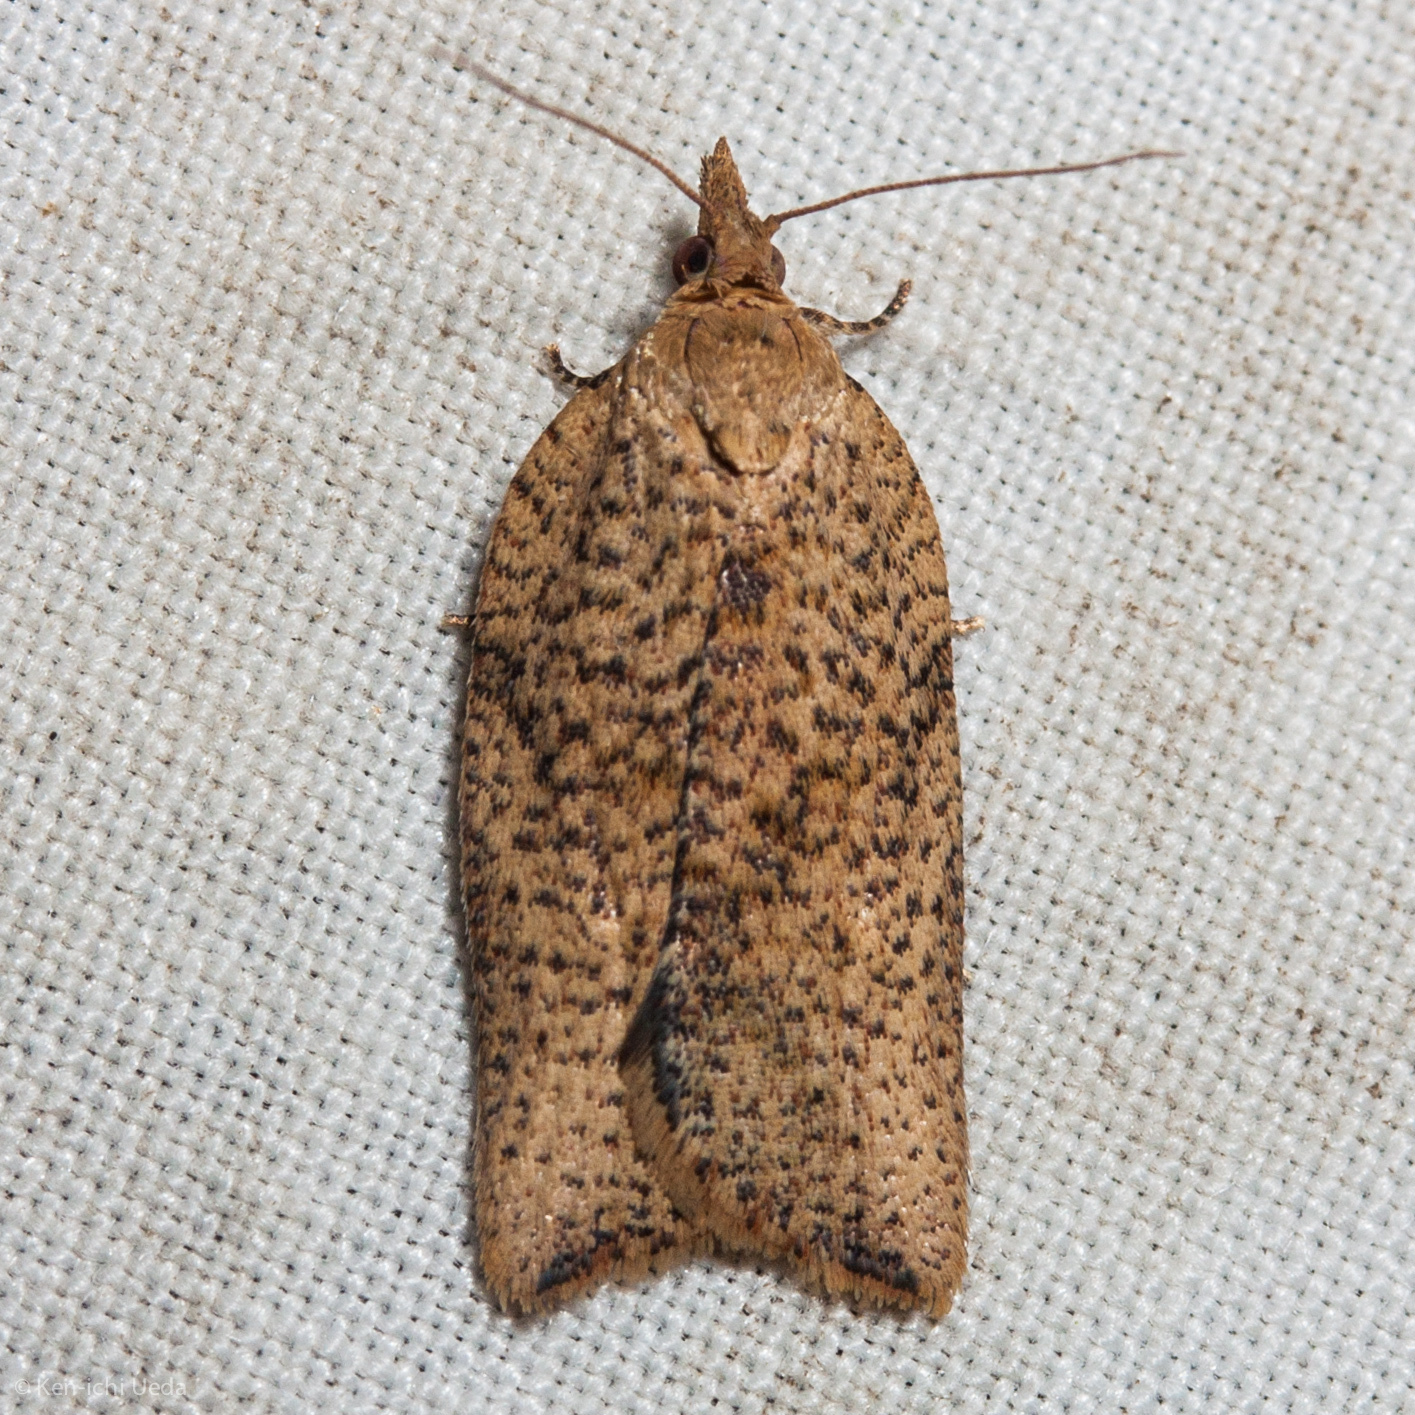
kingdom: Animalia
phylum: Arthropoda
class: Insecta
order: Lepidoptera
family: Tortricidae
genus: Epiphyas
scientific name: Epiphyas postvittana
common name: Light brown apple moth
